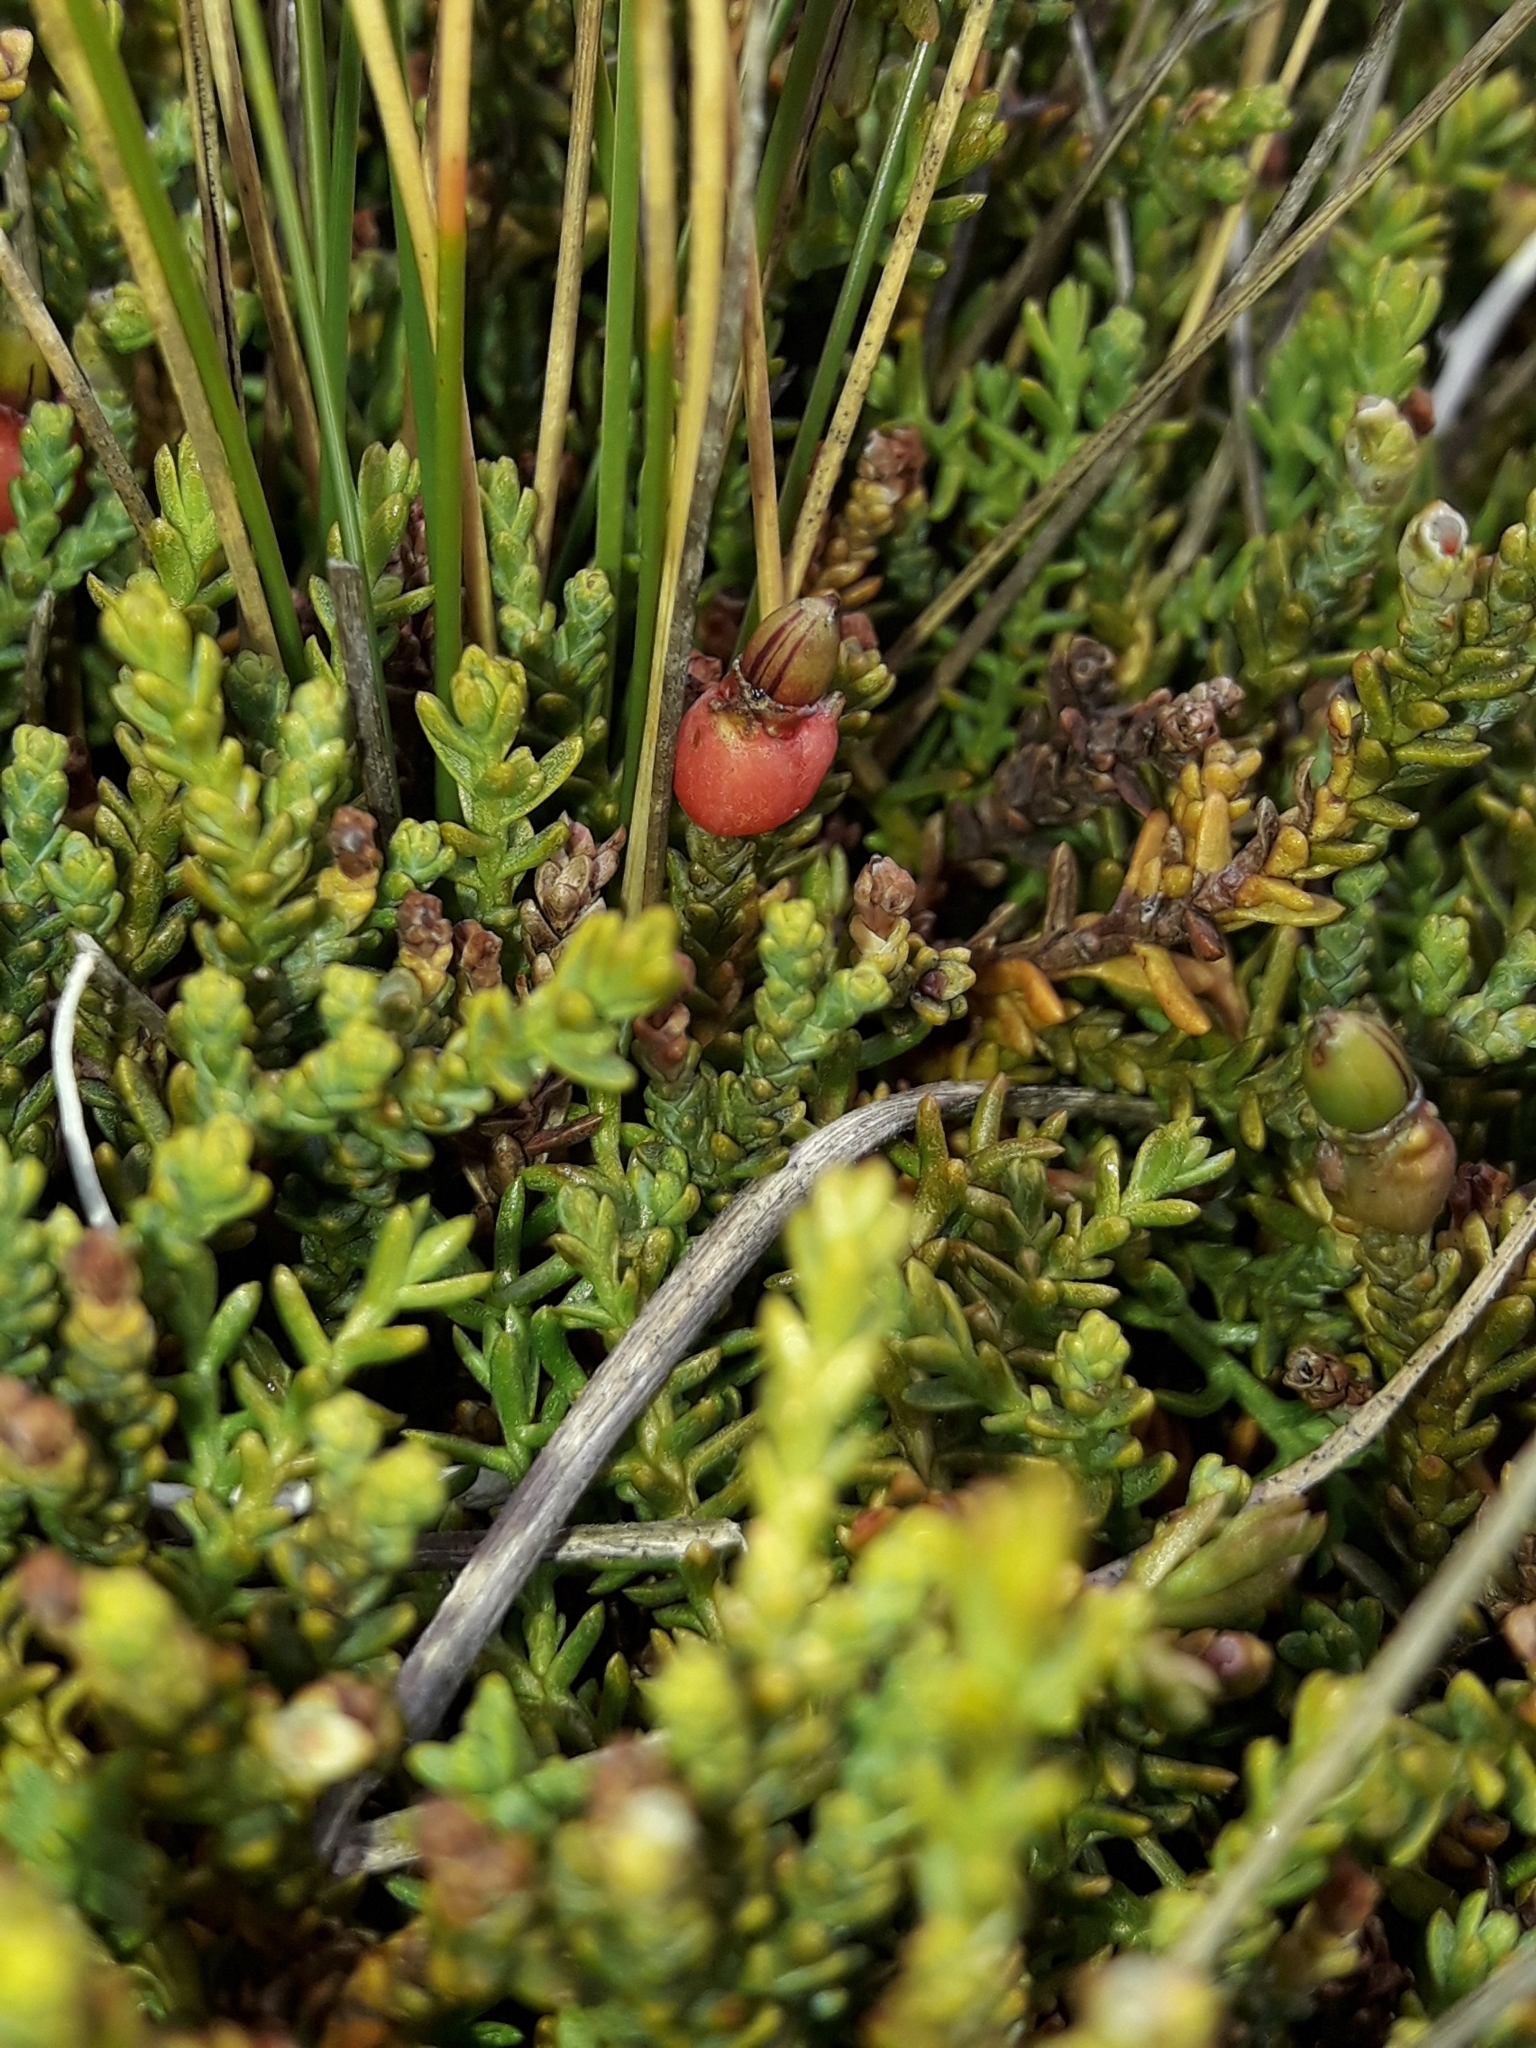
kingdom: Plantae
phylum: Tracheophyta
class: Pinopsida
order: Pinales
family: Podocarpaceae
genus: Lepidothamnus
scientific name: Lepidothamnus laxifolius
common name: Pygmy pine
